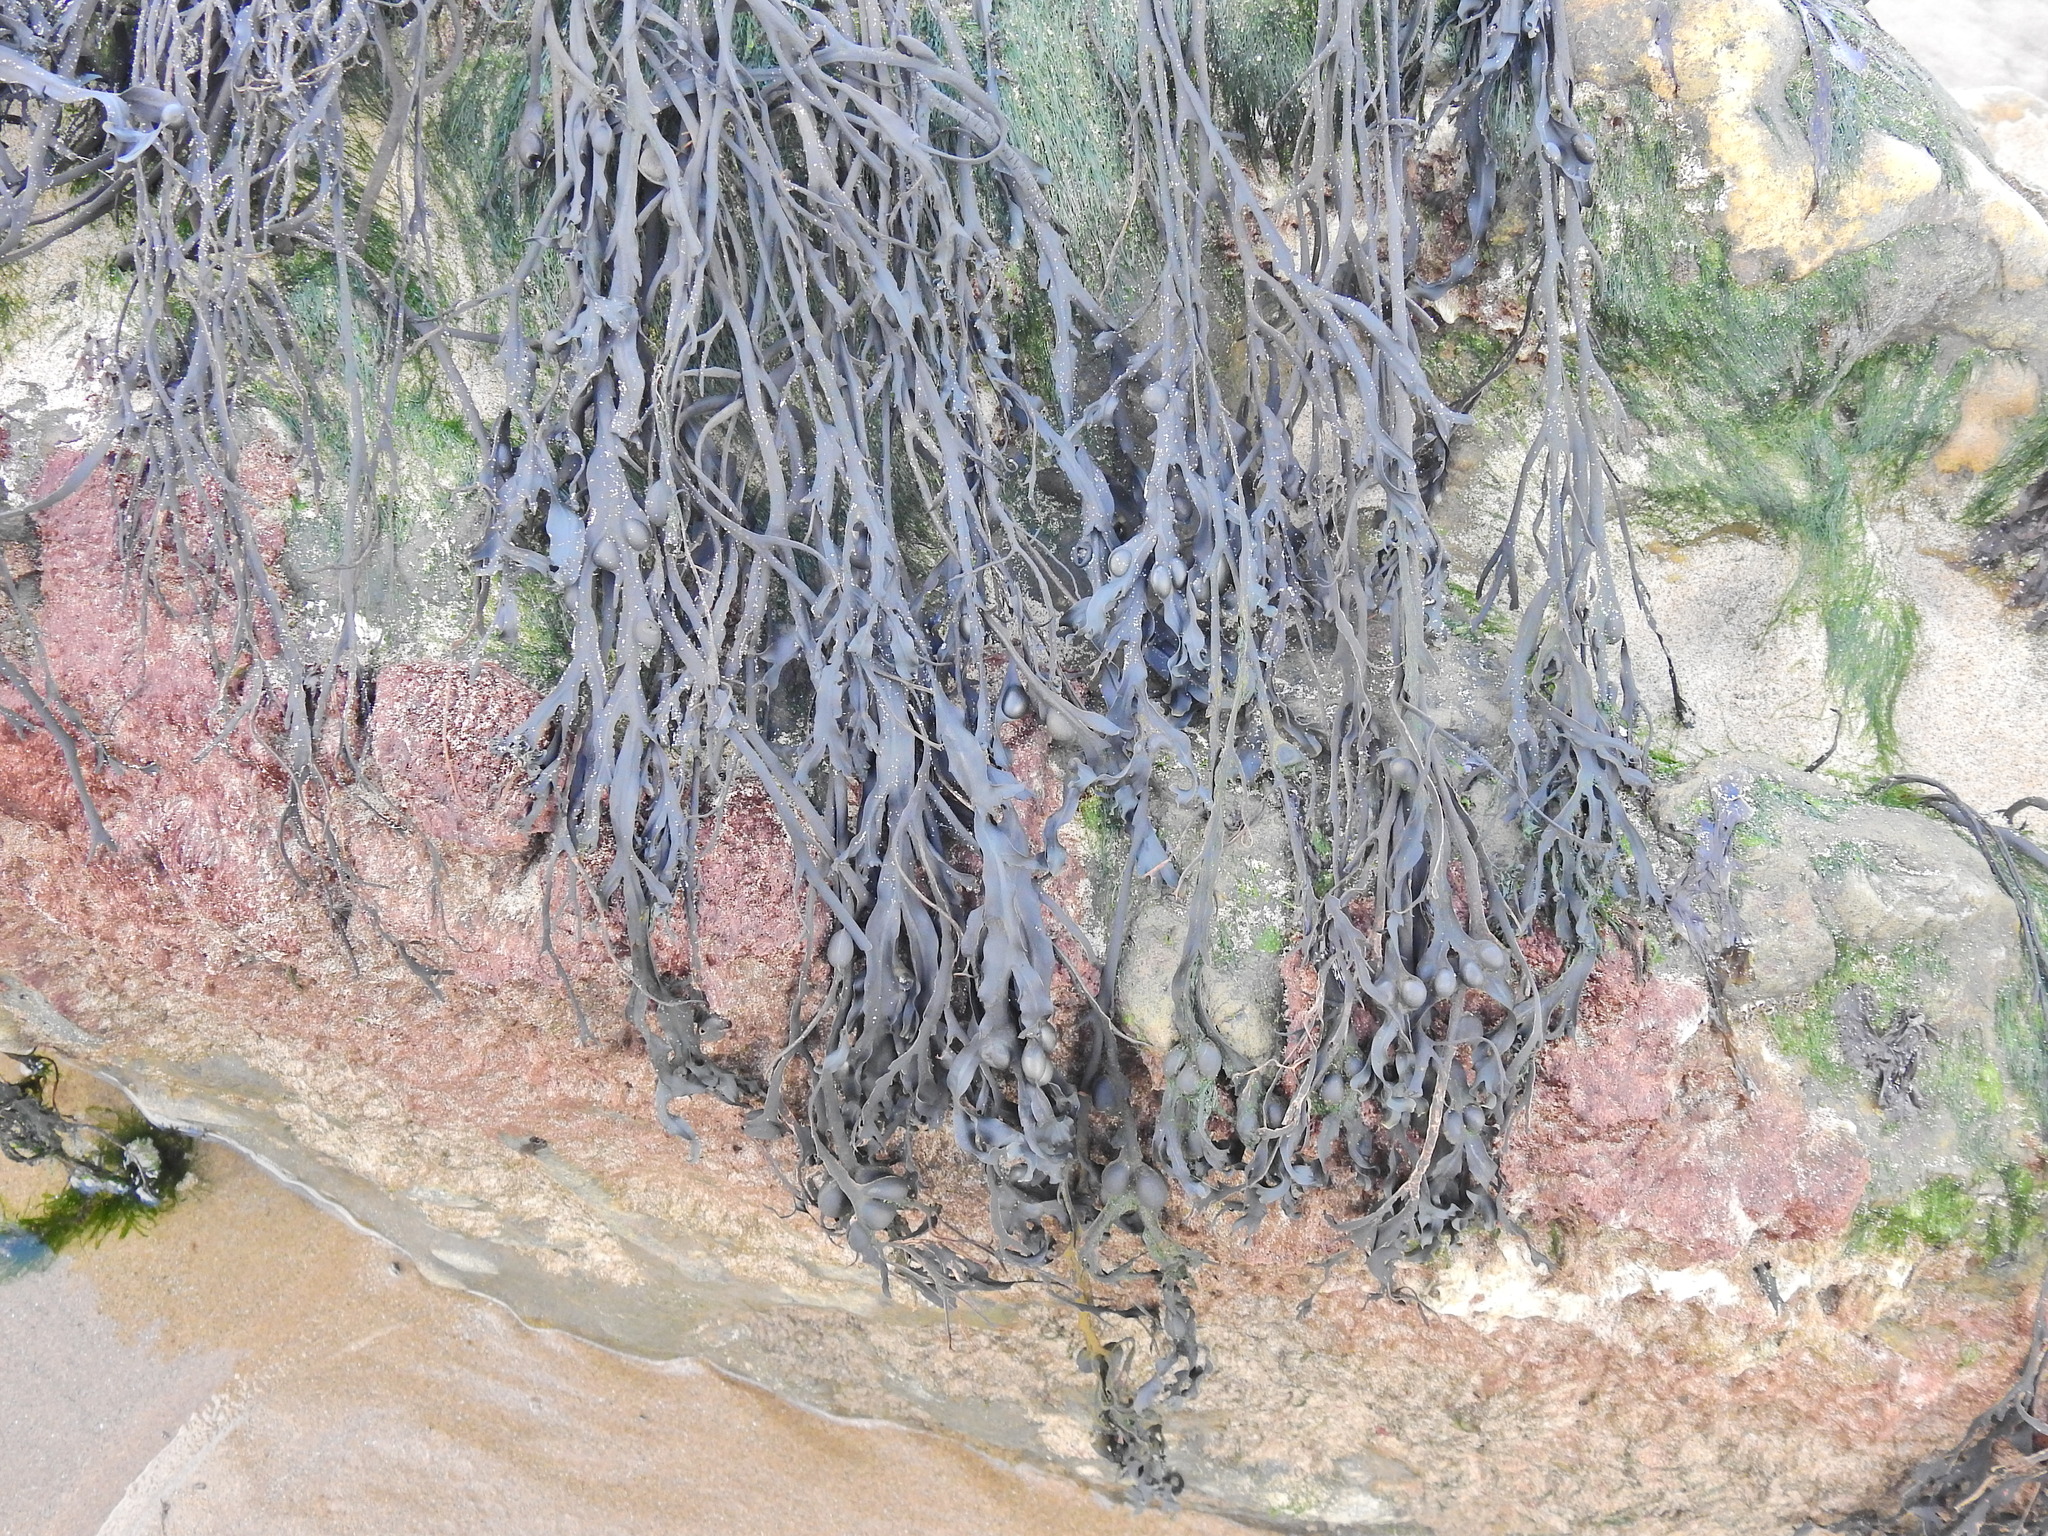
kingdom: Chromista
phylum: Ochrophyta
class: Phaeophyceae
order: Fucales
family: Fucaceae
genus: Ascophyllum
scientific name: Ascophyllum nodosum
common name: Knotted wrack
